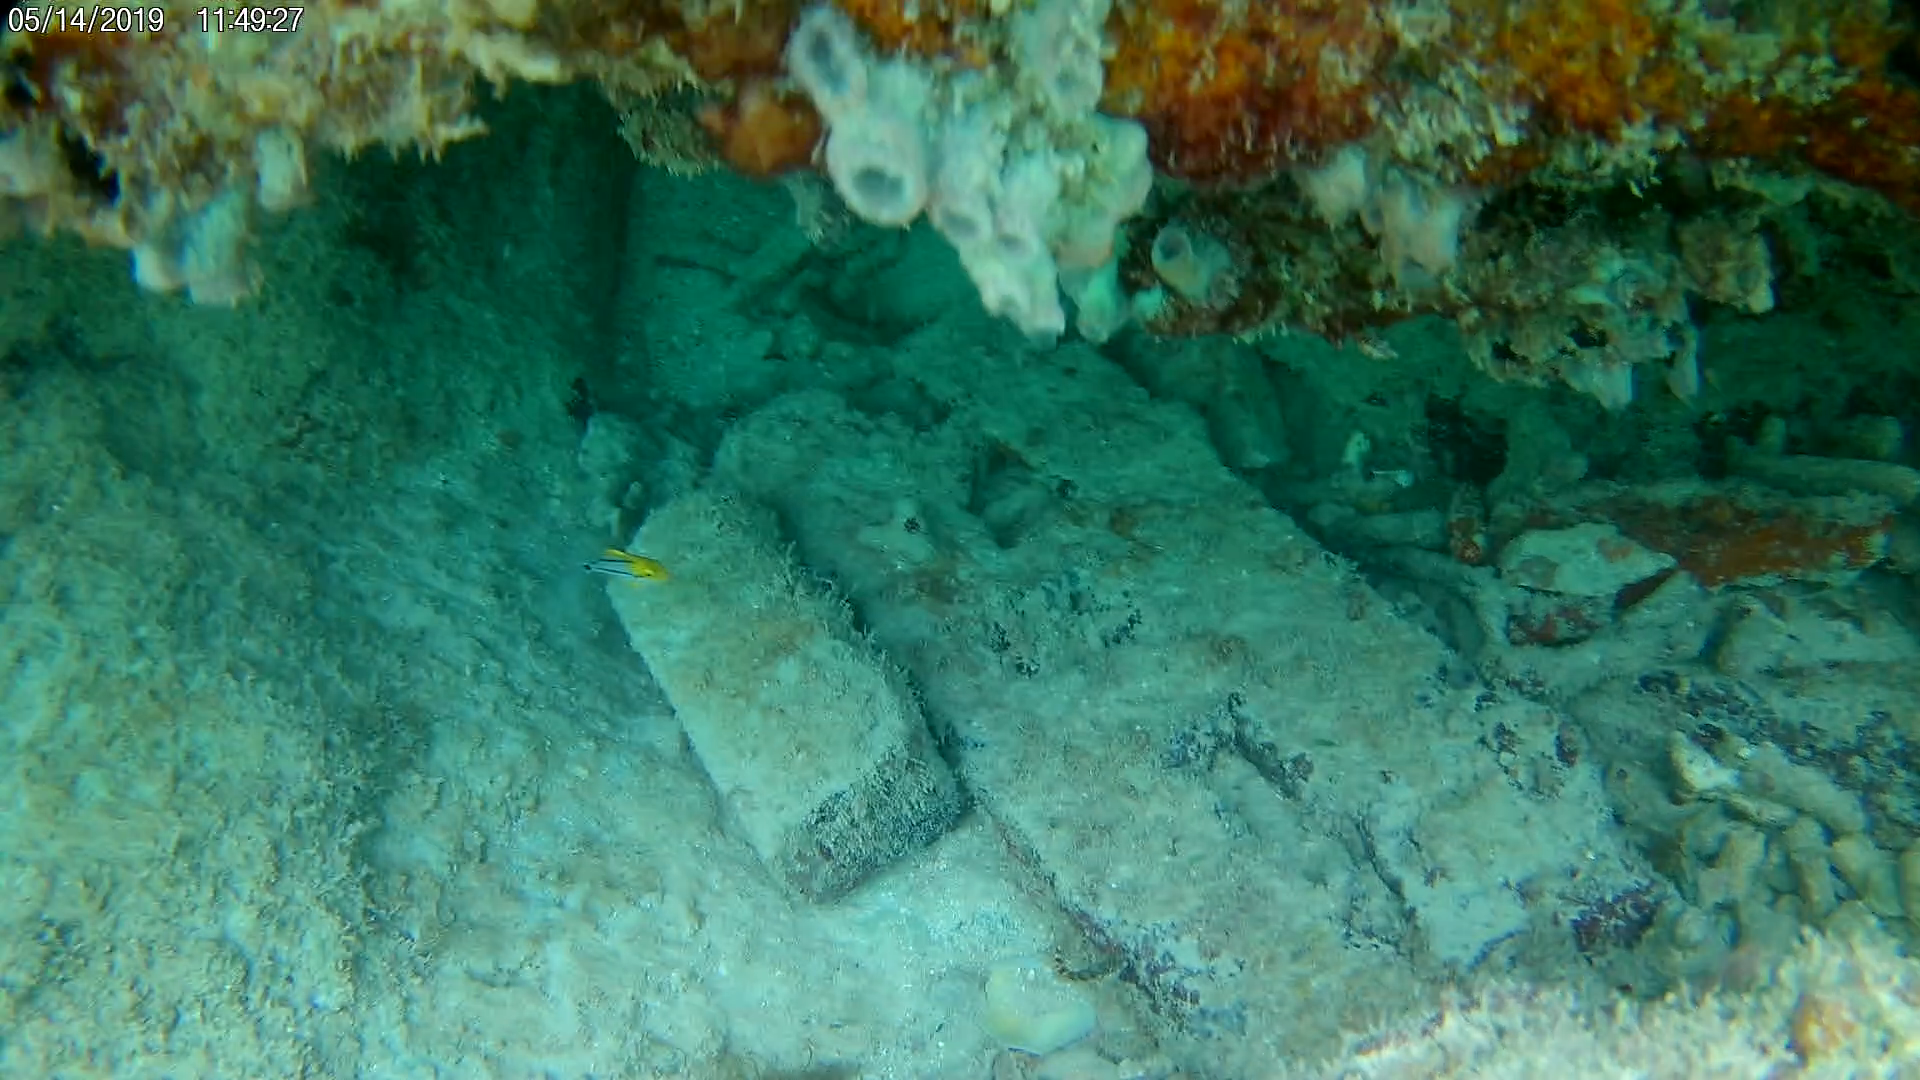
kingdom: Animalia
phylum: Chordata
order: Perciformes
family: Haemulidae
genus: Anisotremus
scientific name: Anisotremus virginicus
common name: Porkfish
